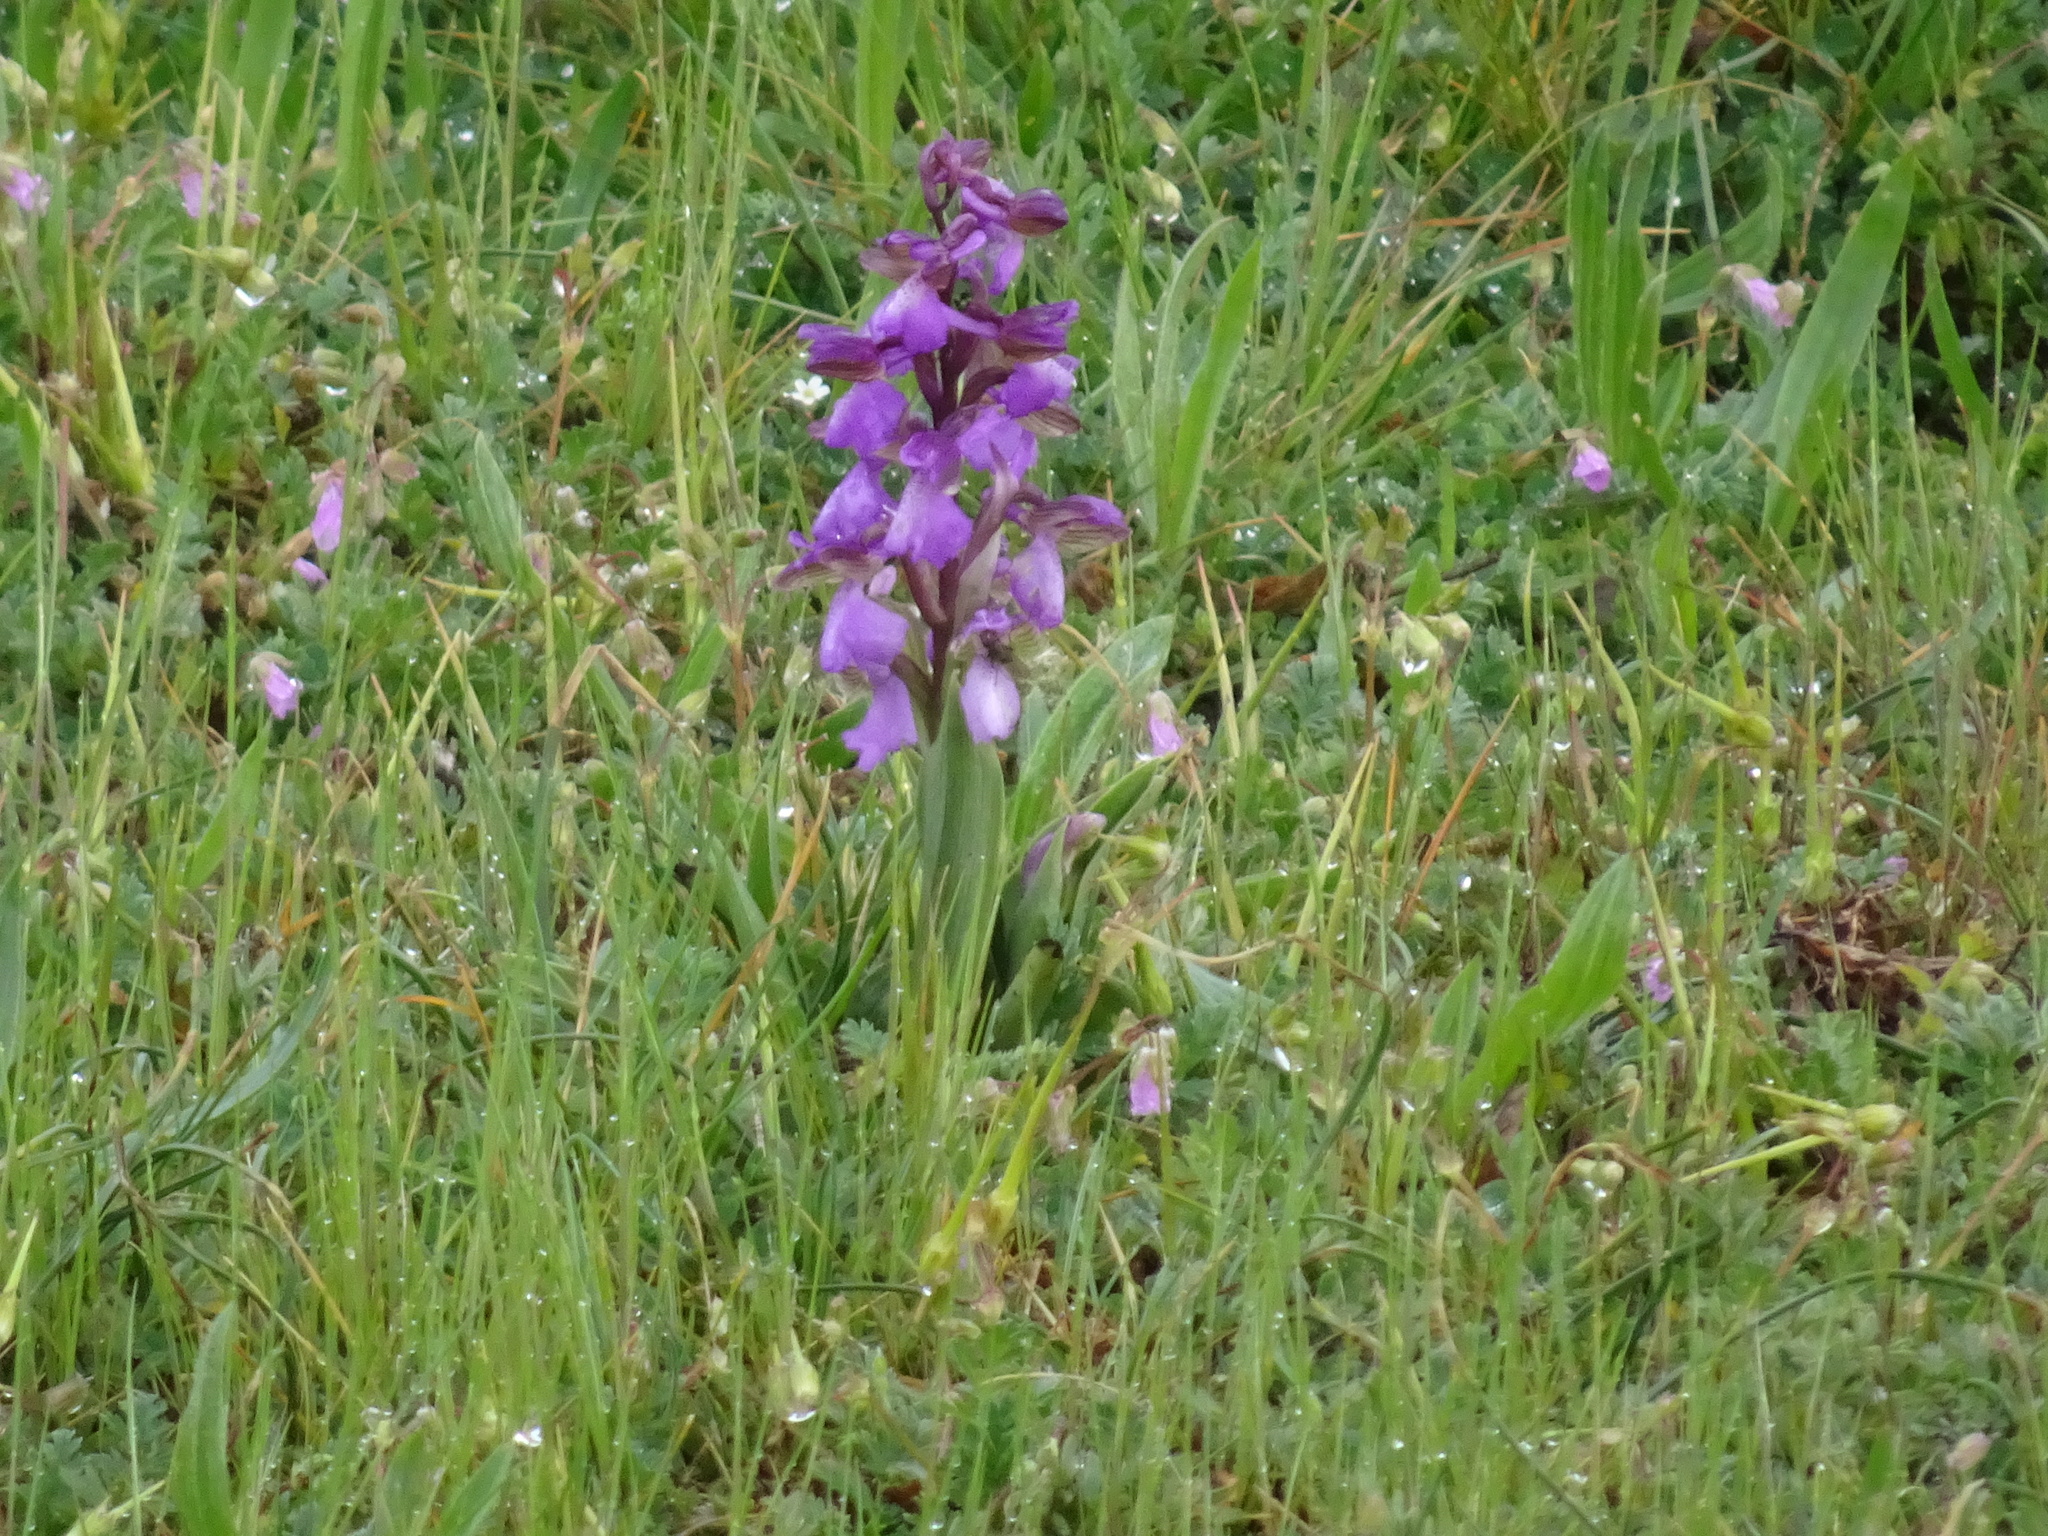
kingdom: Plantae
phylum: Tracheophyta
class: Liliopsida
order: Asparagales
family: Orchidaceae
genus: Anacamptis
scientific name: Anacamptis morio
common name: Green-winged orchid
